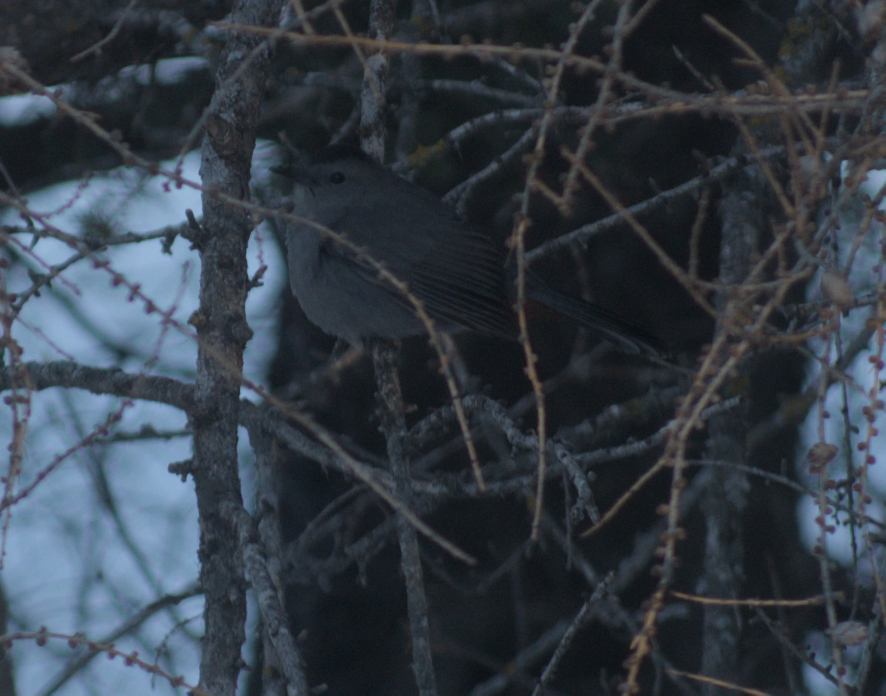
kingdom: Animalia
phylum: Chordata
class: Aves
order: Passeriformes
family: Mimidae
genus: Dumetella
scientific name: Dumetella carolinensis
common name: Gray catbird
